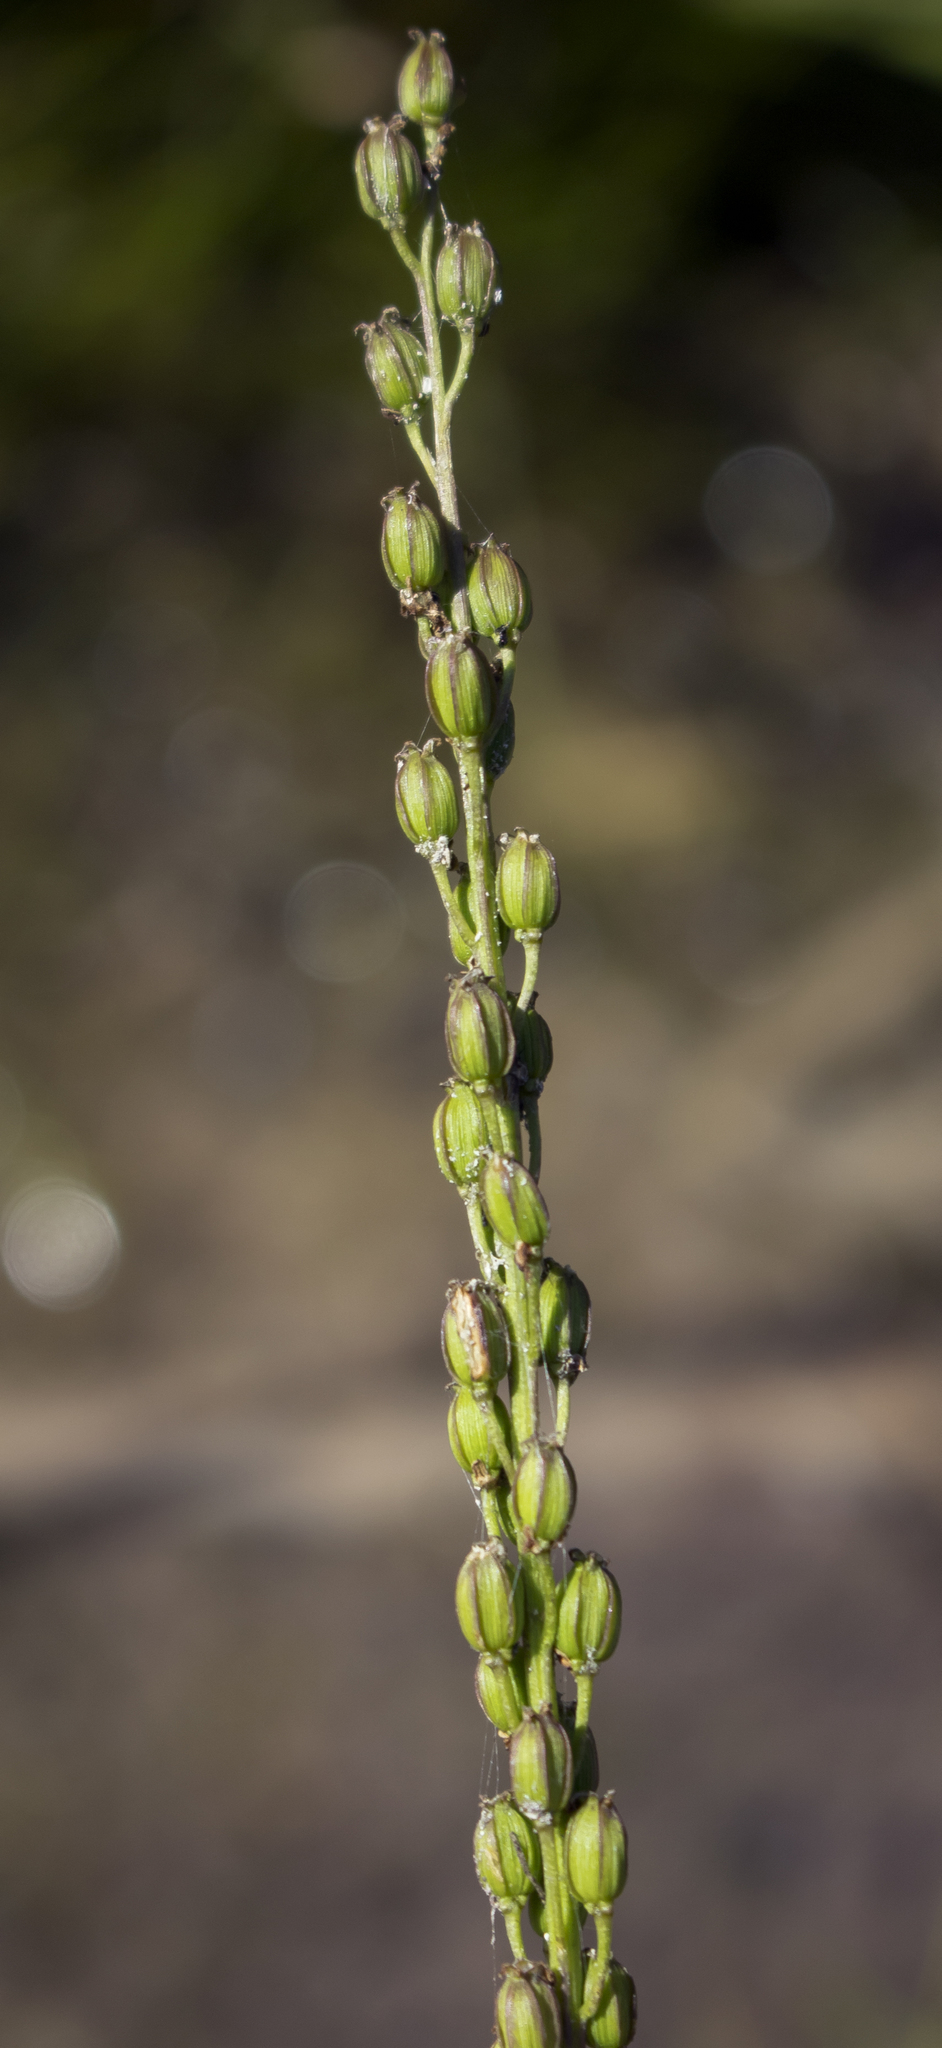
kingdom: Plantae
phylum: Tracheophyta
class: Liliopsida
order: Alismatales
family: Juncaginaceae
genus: Triglochin
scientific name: Triglochin maritima
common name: Sea arrowgrass
